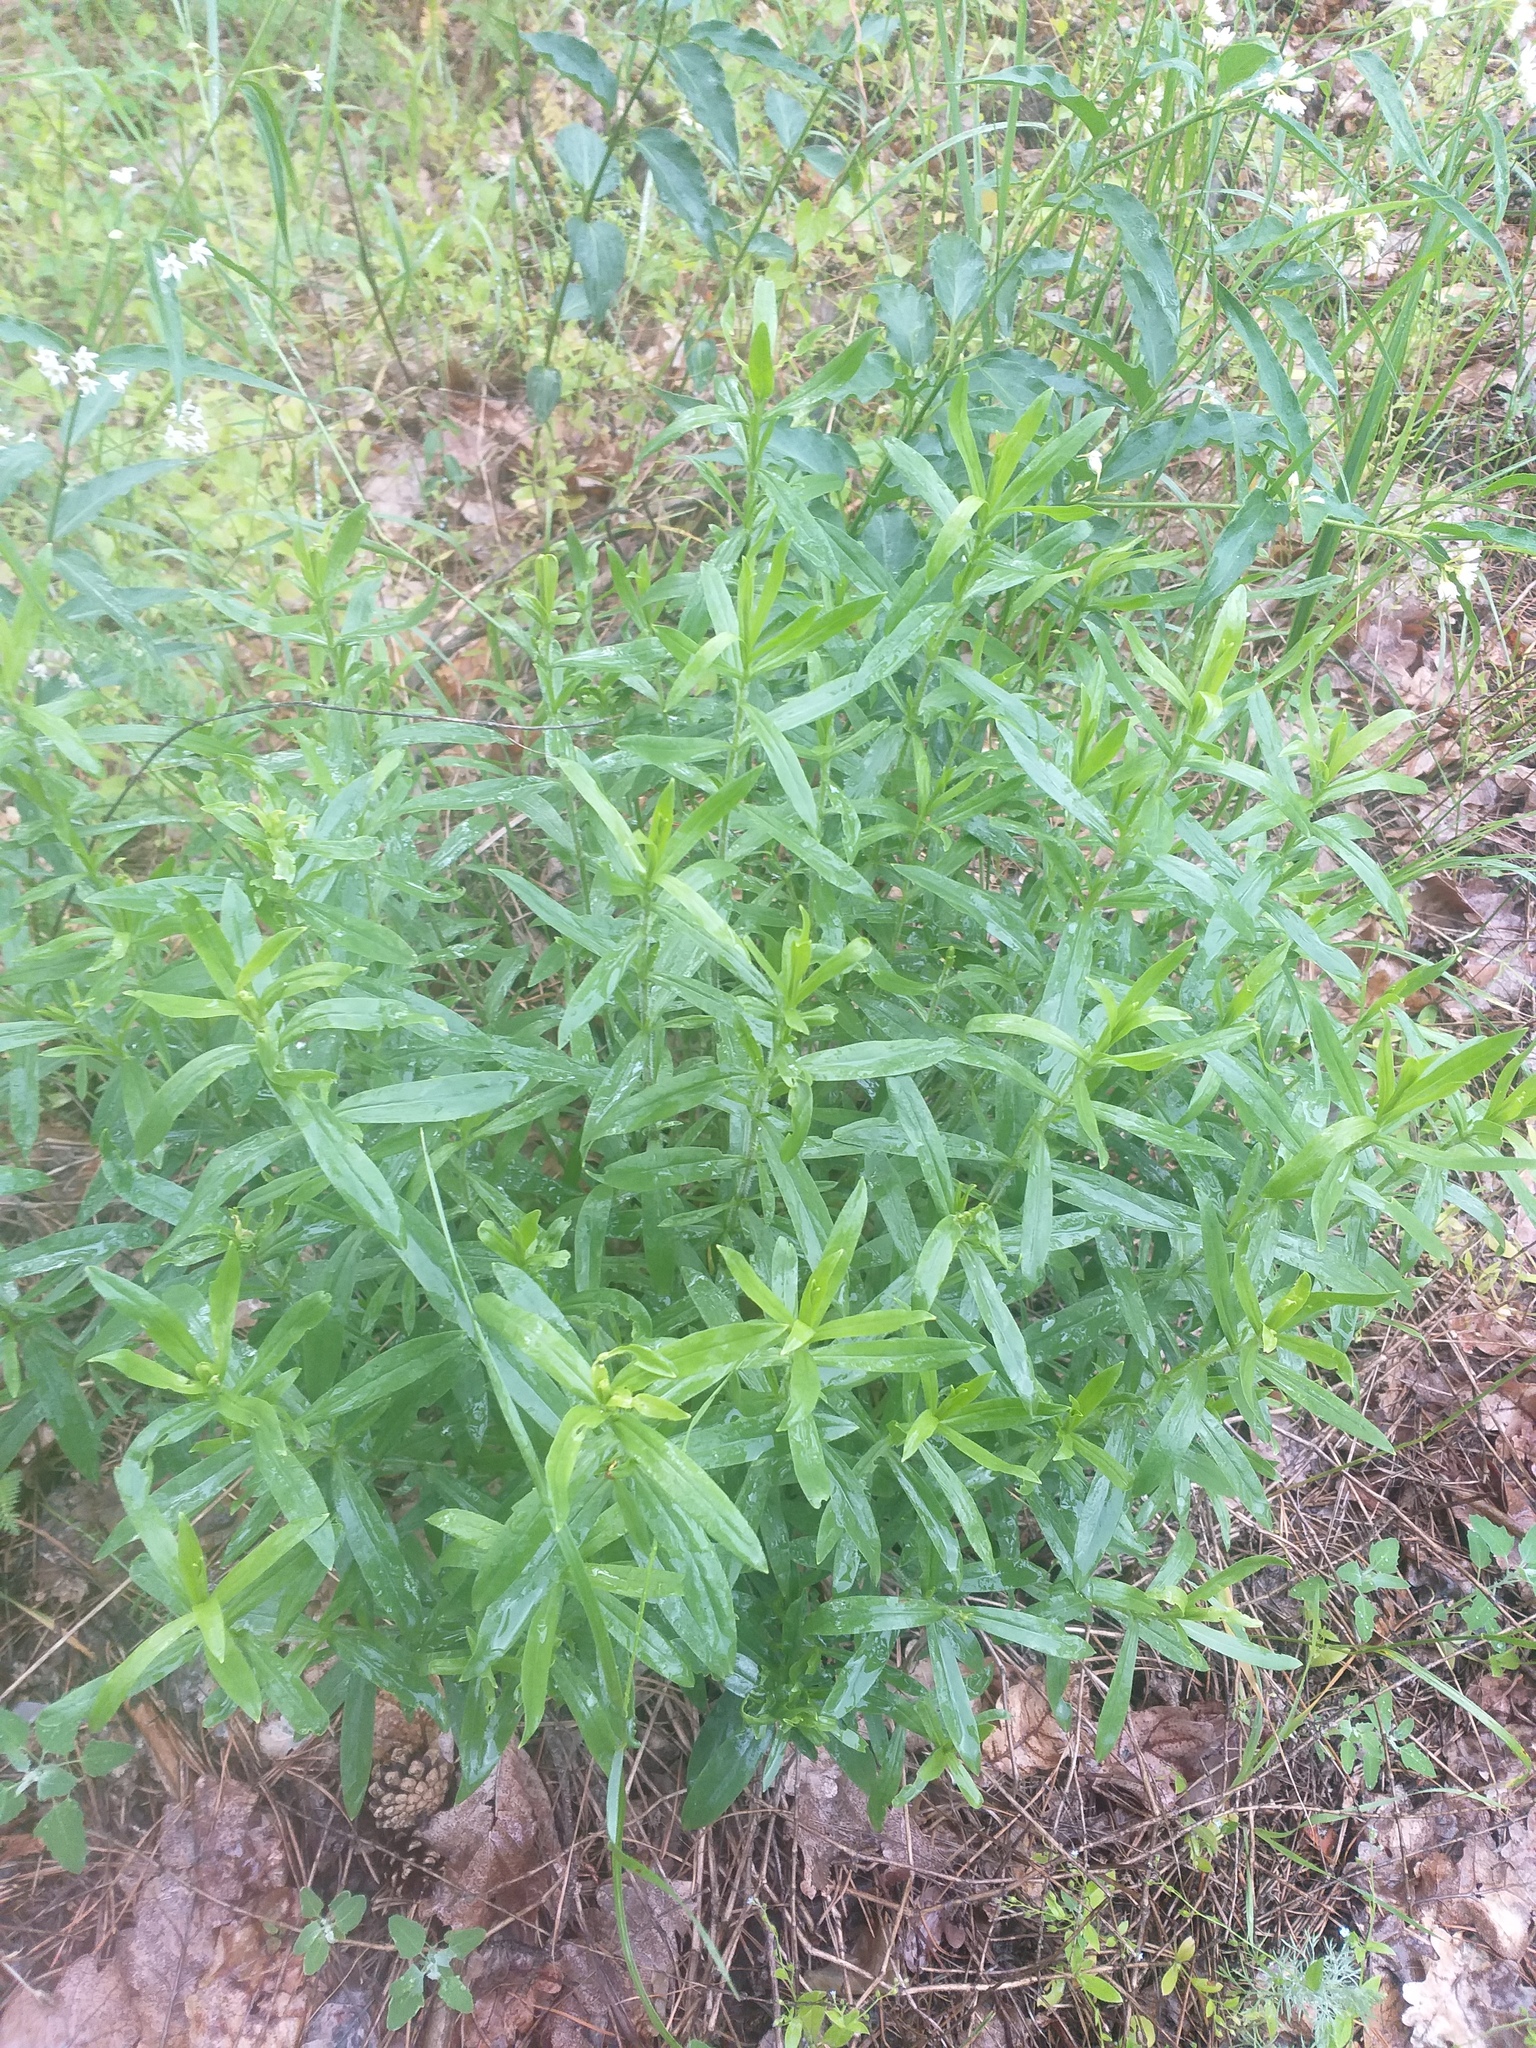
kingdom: Plantae
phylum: Tracheophyta
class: Magnoliopsida
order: Caryophyllales
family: Caryophyllaceae
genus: Silene
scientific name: Silene tatarica
